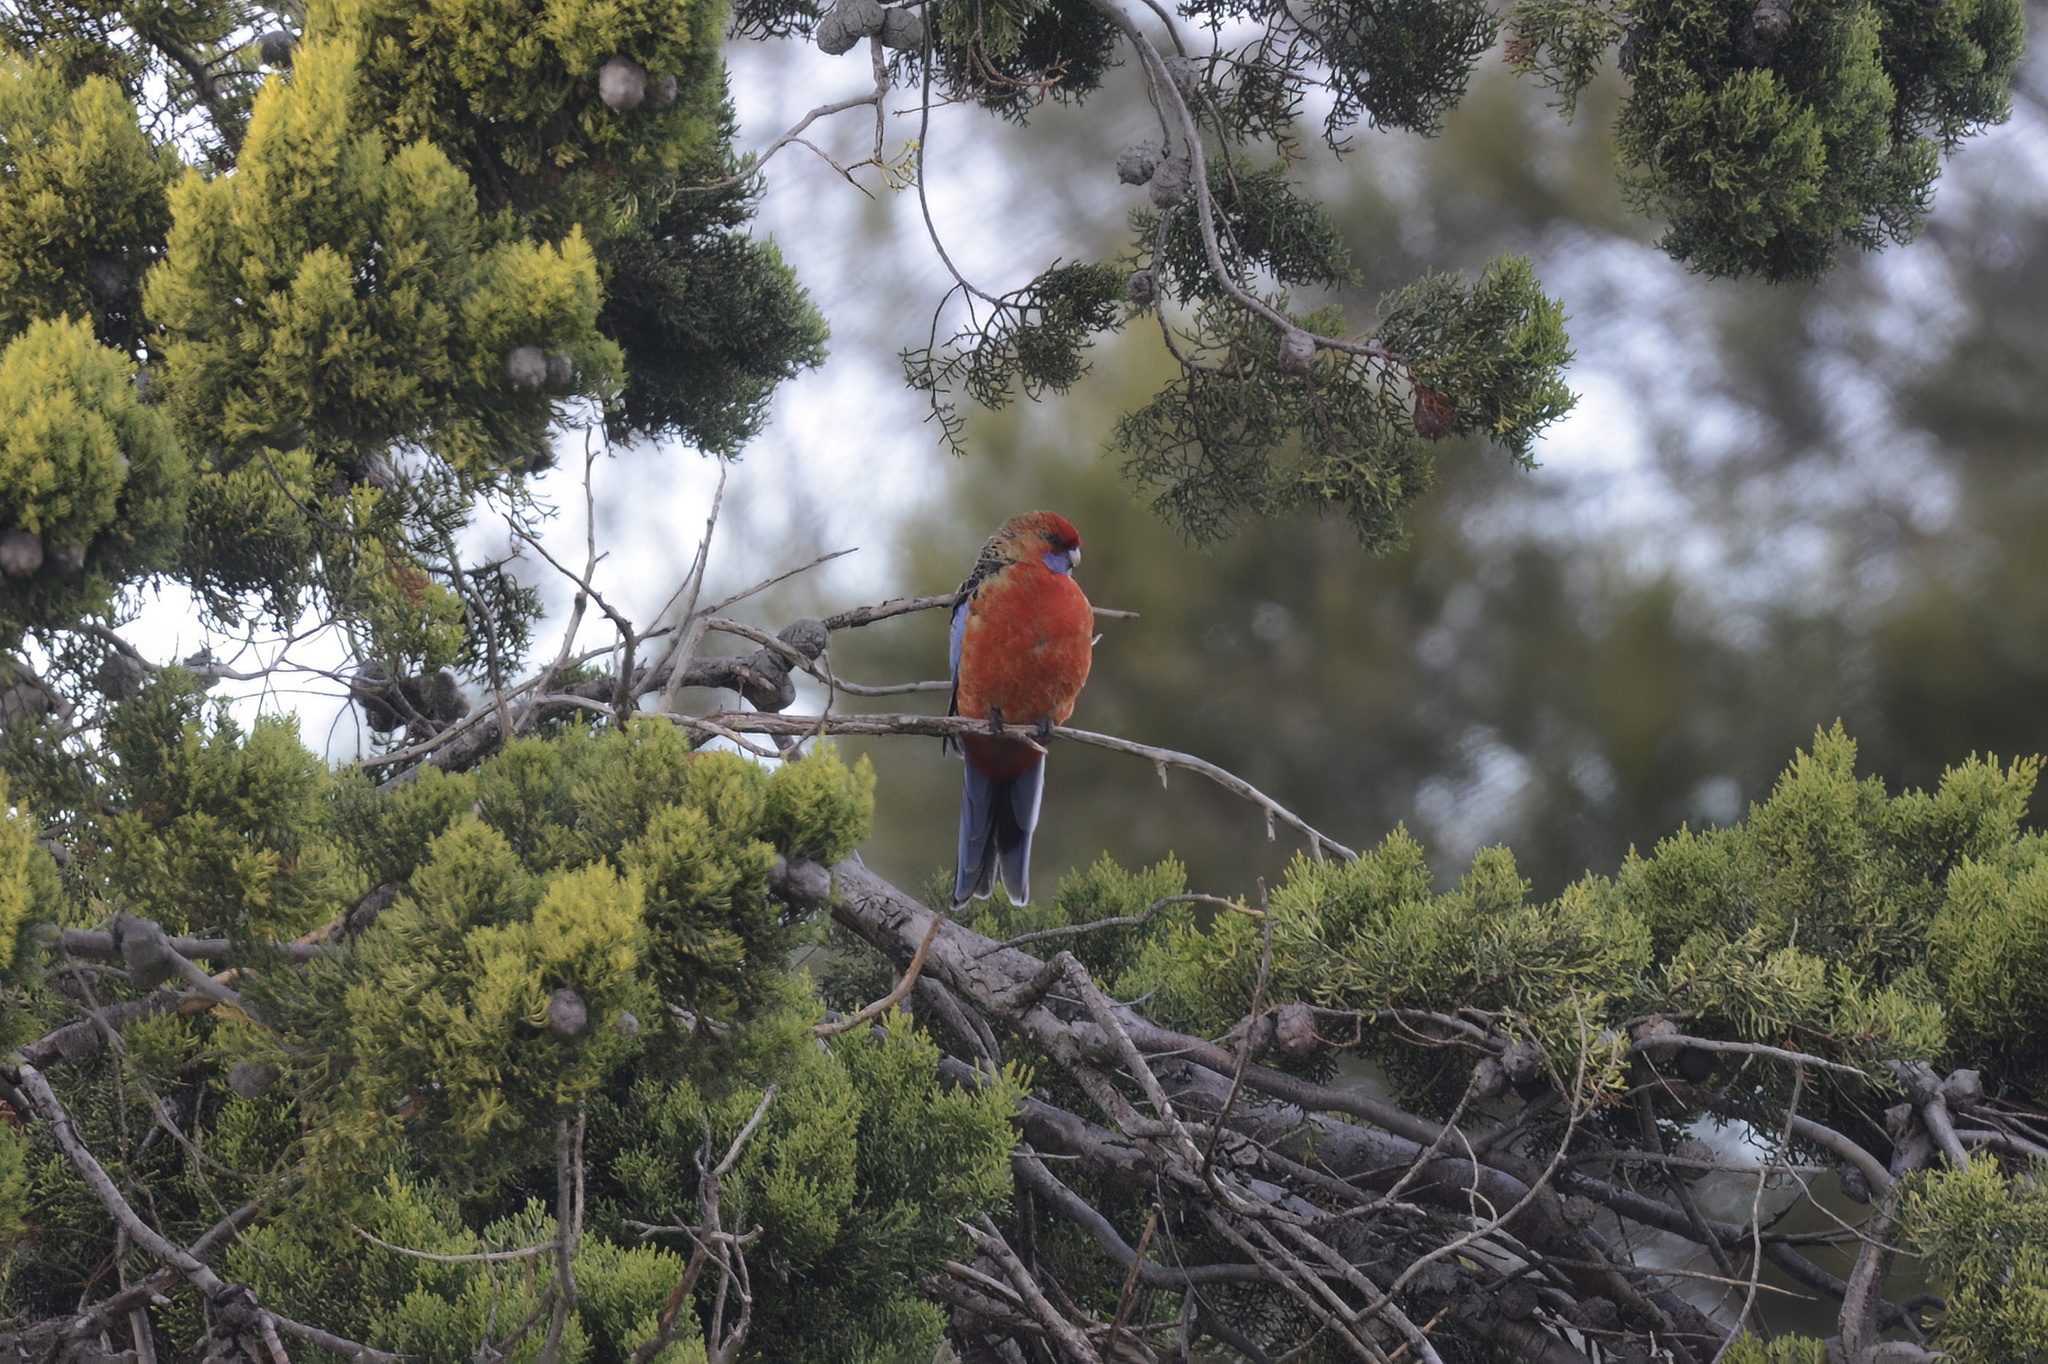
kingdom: Animalia
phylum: Chordata
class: Aves
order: Psittaciformes
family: Psittacidae
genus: Platycercus
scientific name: Platycercus elegans
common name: Crimson rosella
